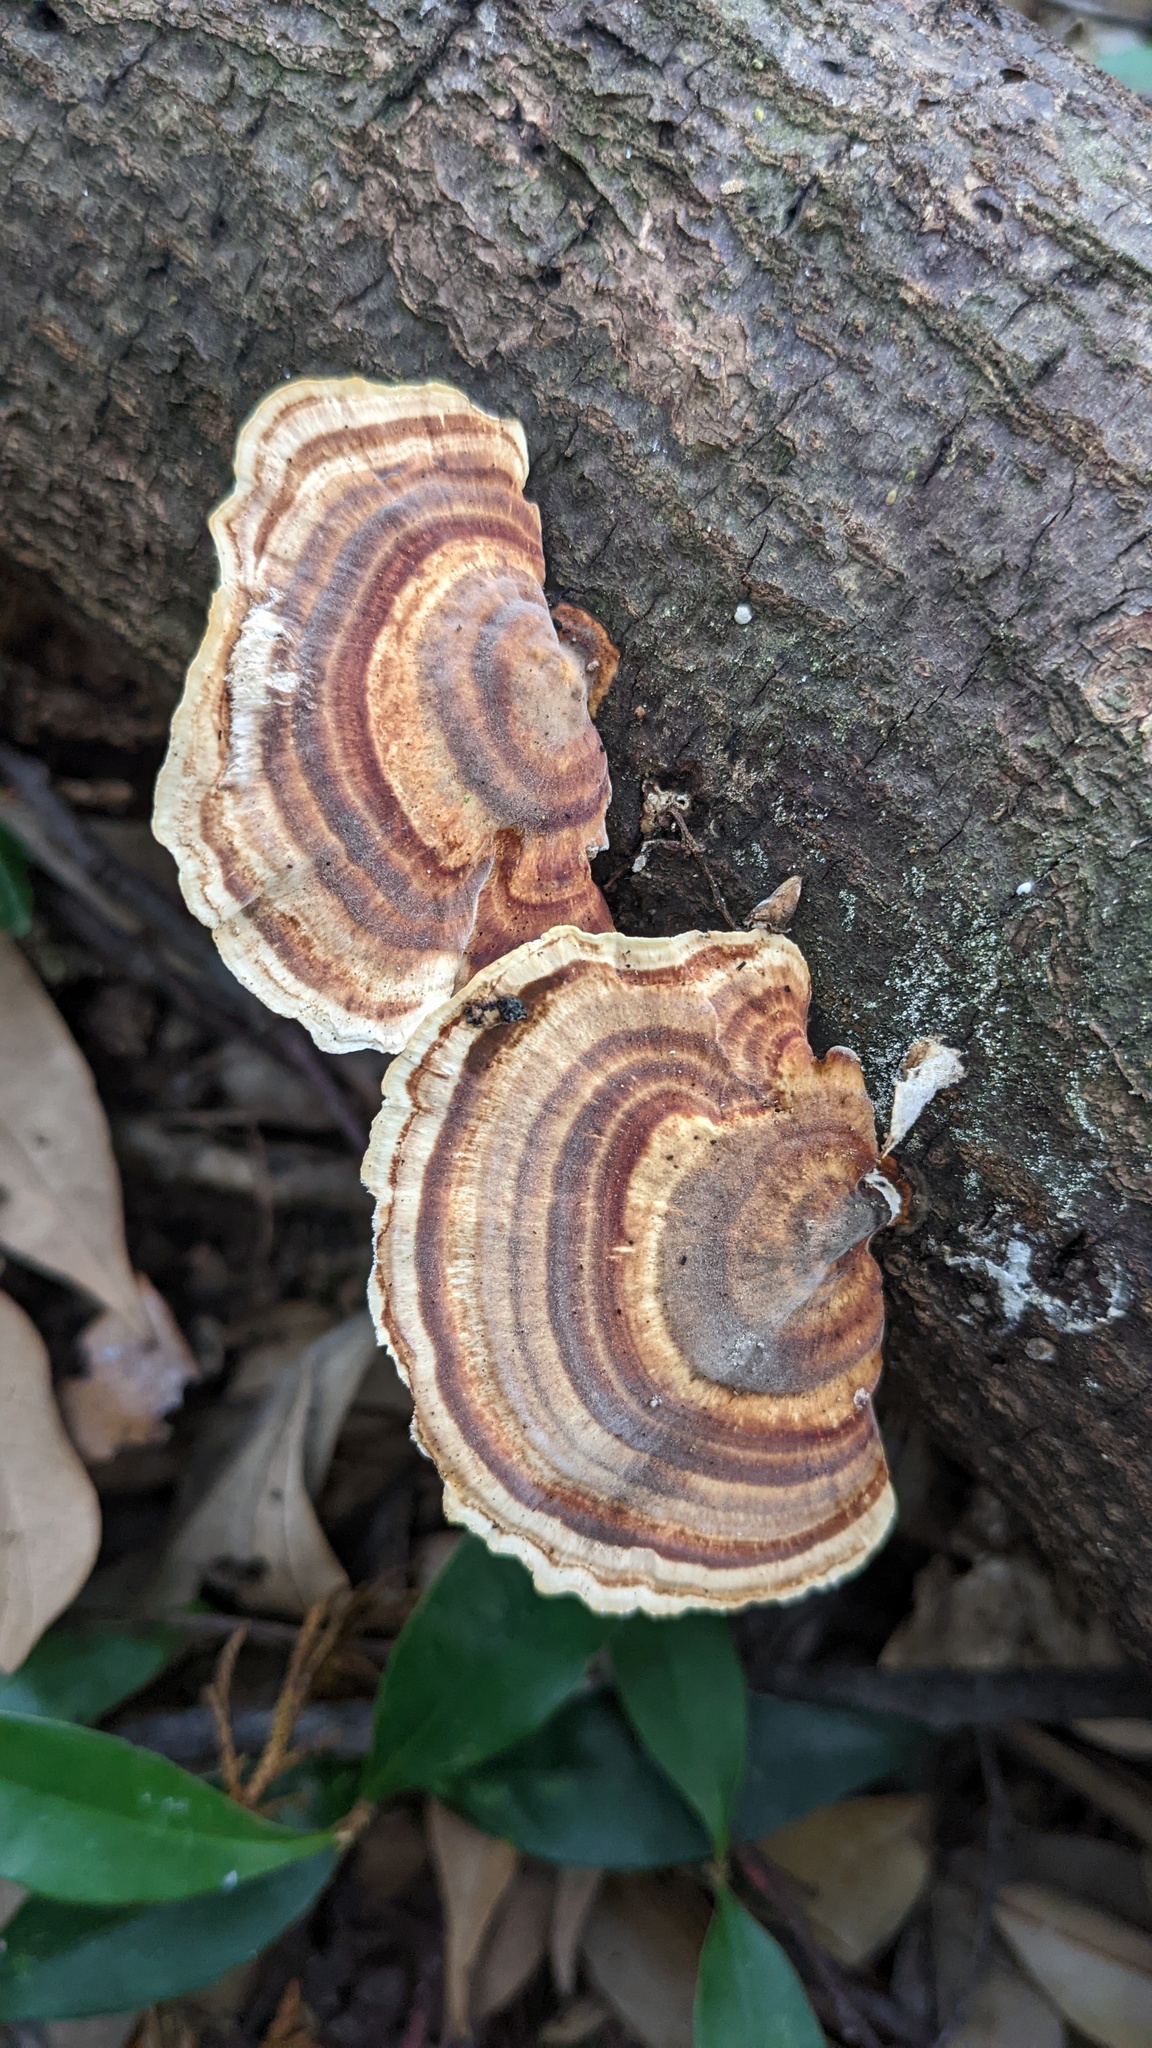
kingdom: Fungi
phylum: Basidiomycota
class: Agaricomycetes
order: Polyporales
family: Polyporaceae
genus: Microporus
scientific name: Microporus affinis
